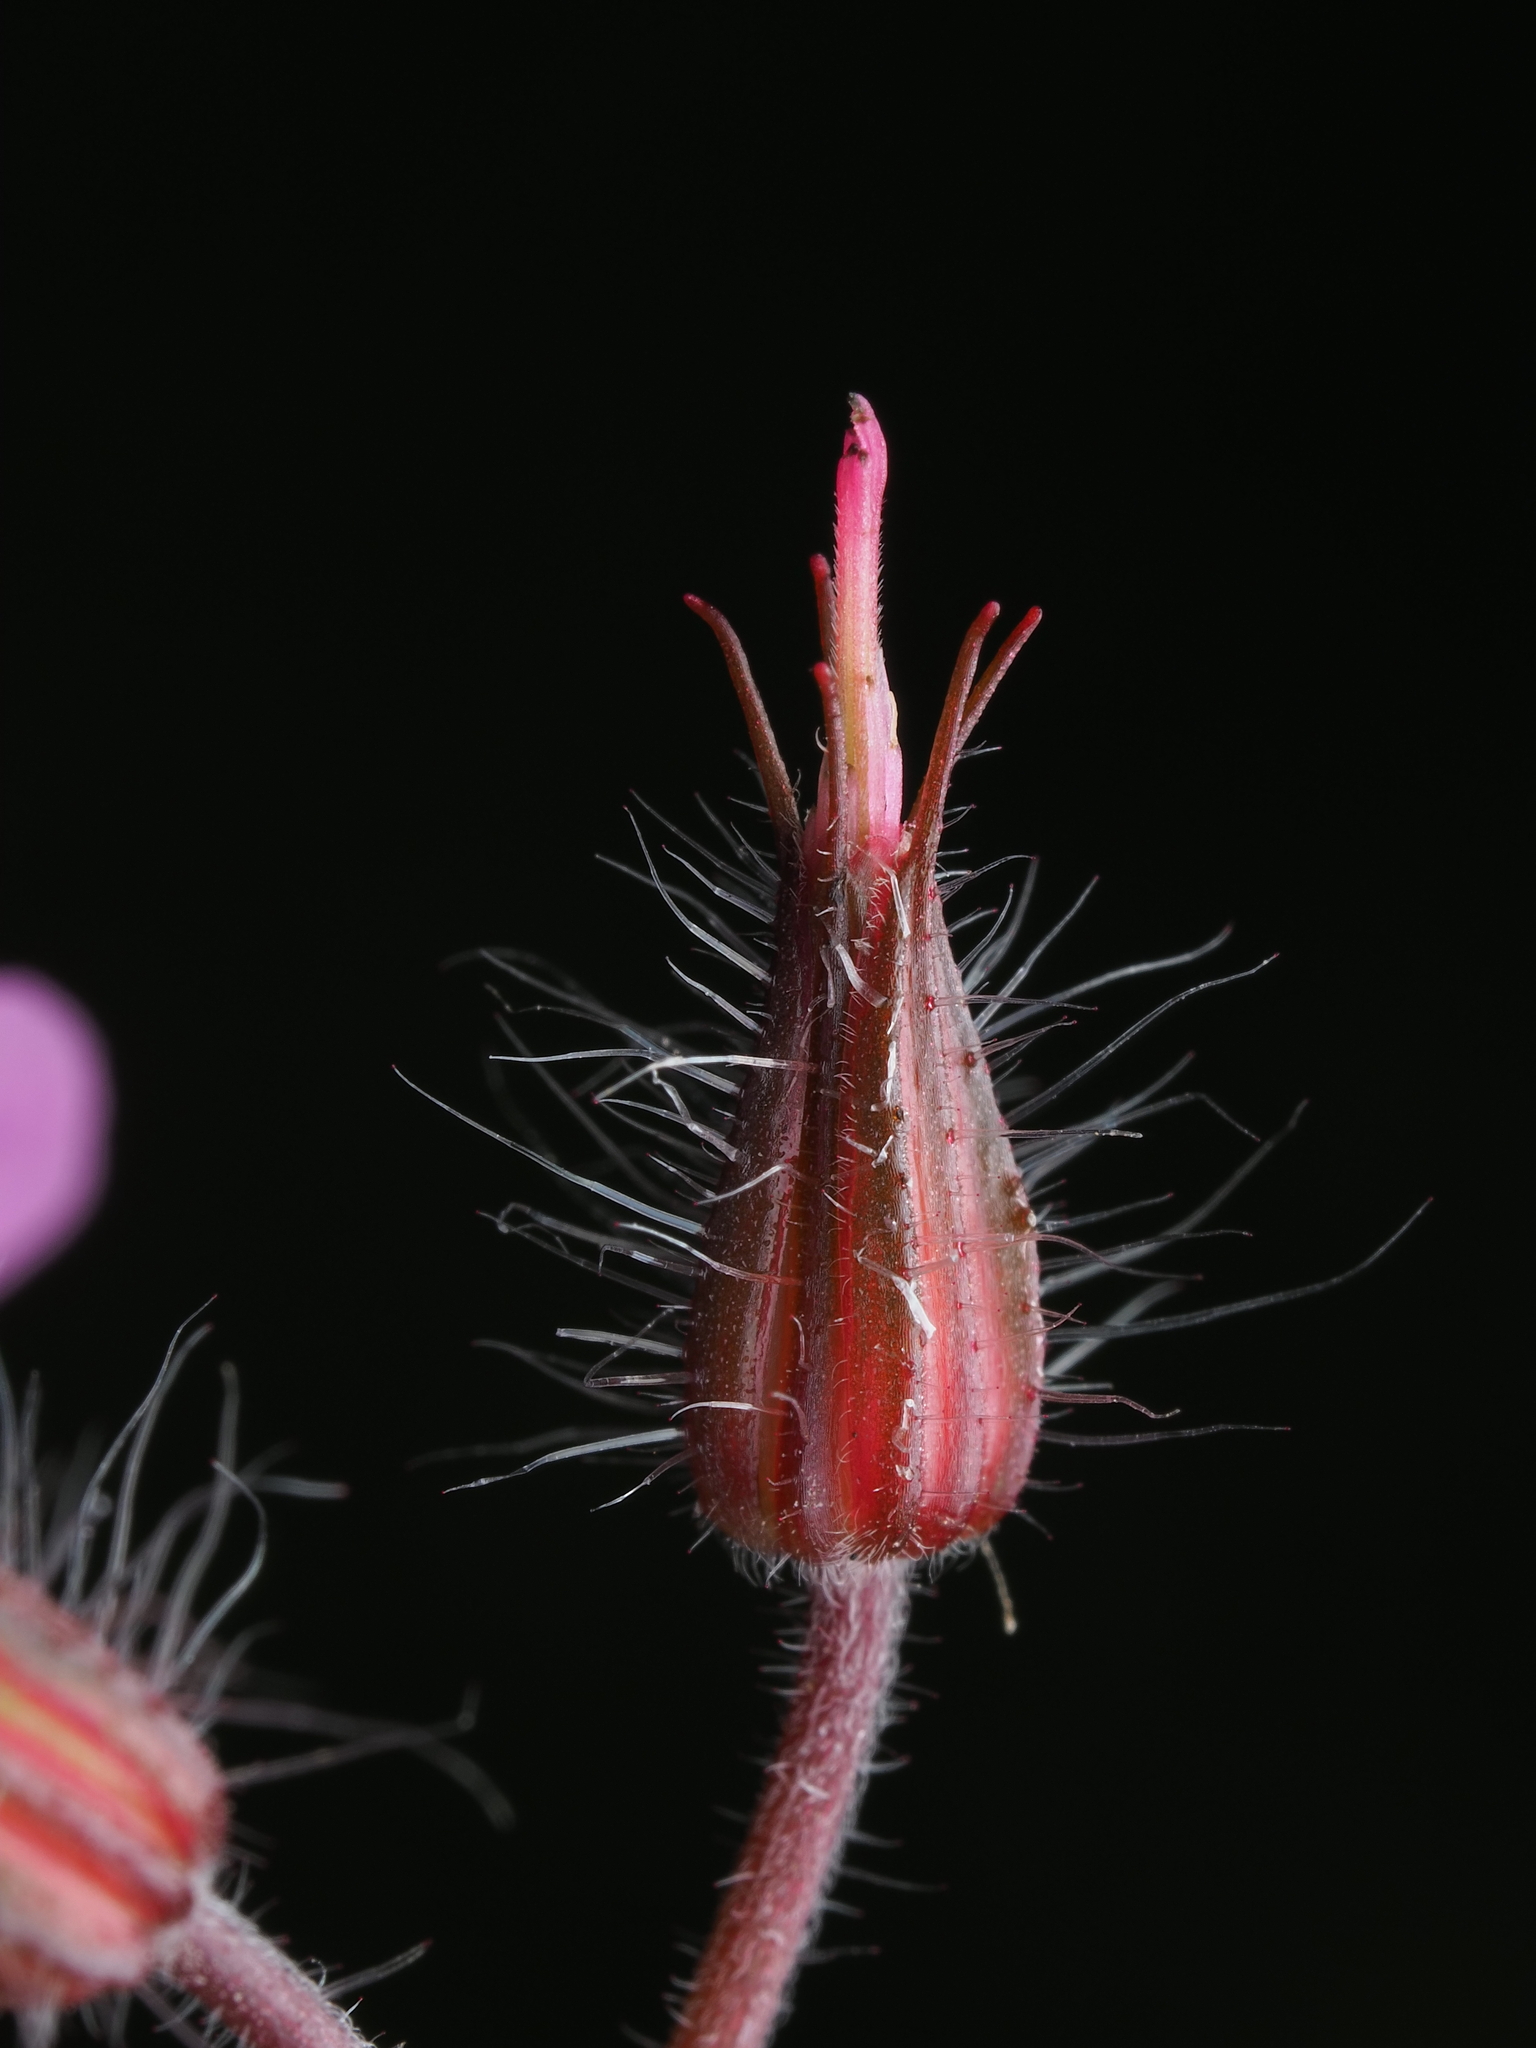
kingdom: Plantae
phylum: Tracheophyta
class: Magnoliopsida
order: Geraniales
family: Geraniaceae
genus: Geranium
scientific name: Geranium robertianum
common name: Herb-robert
